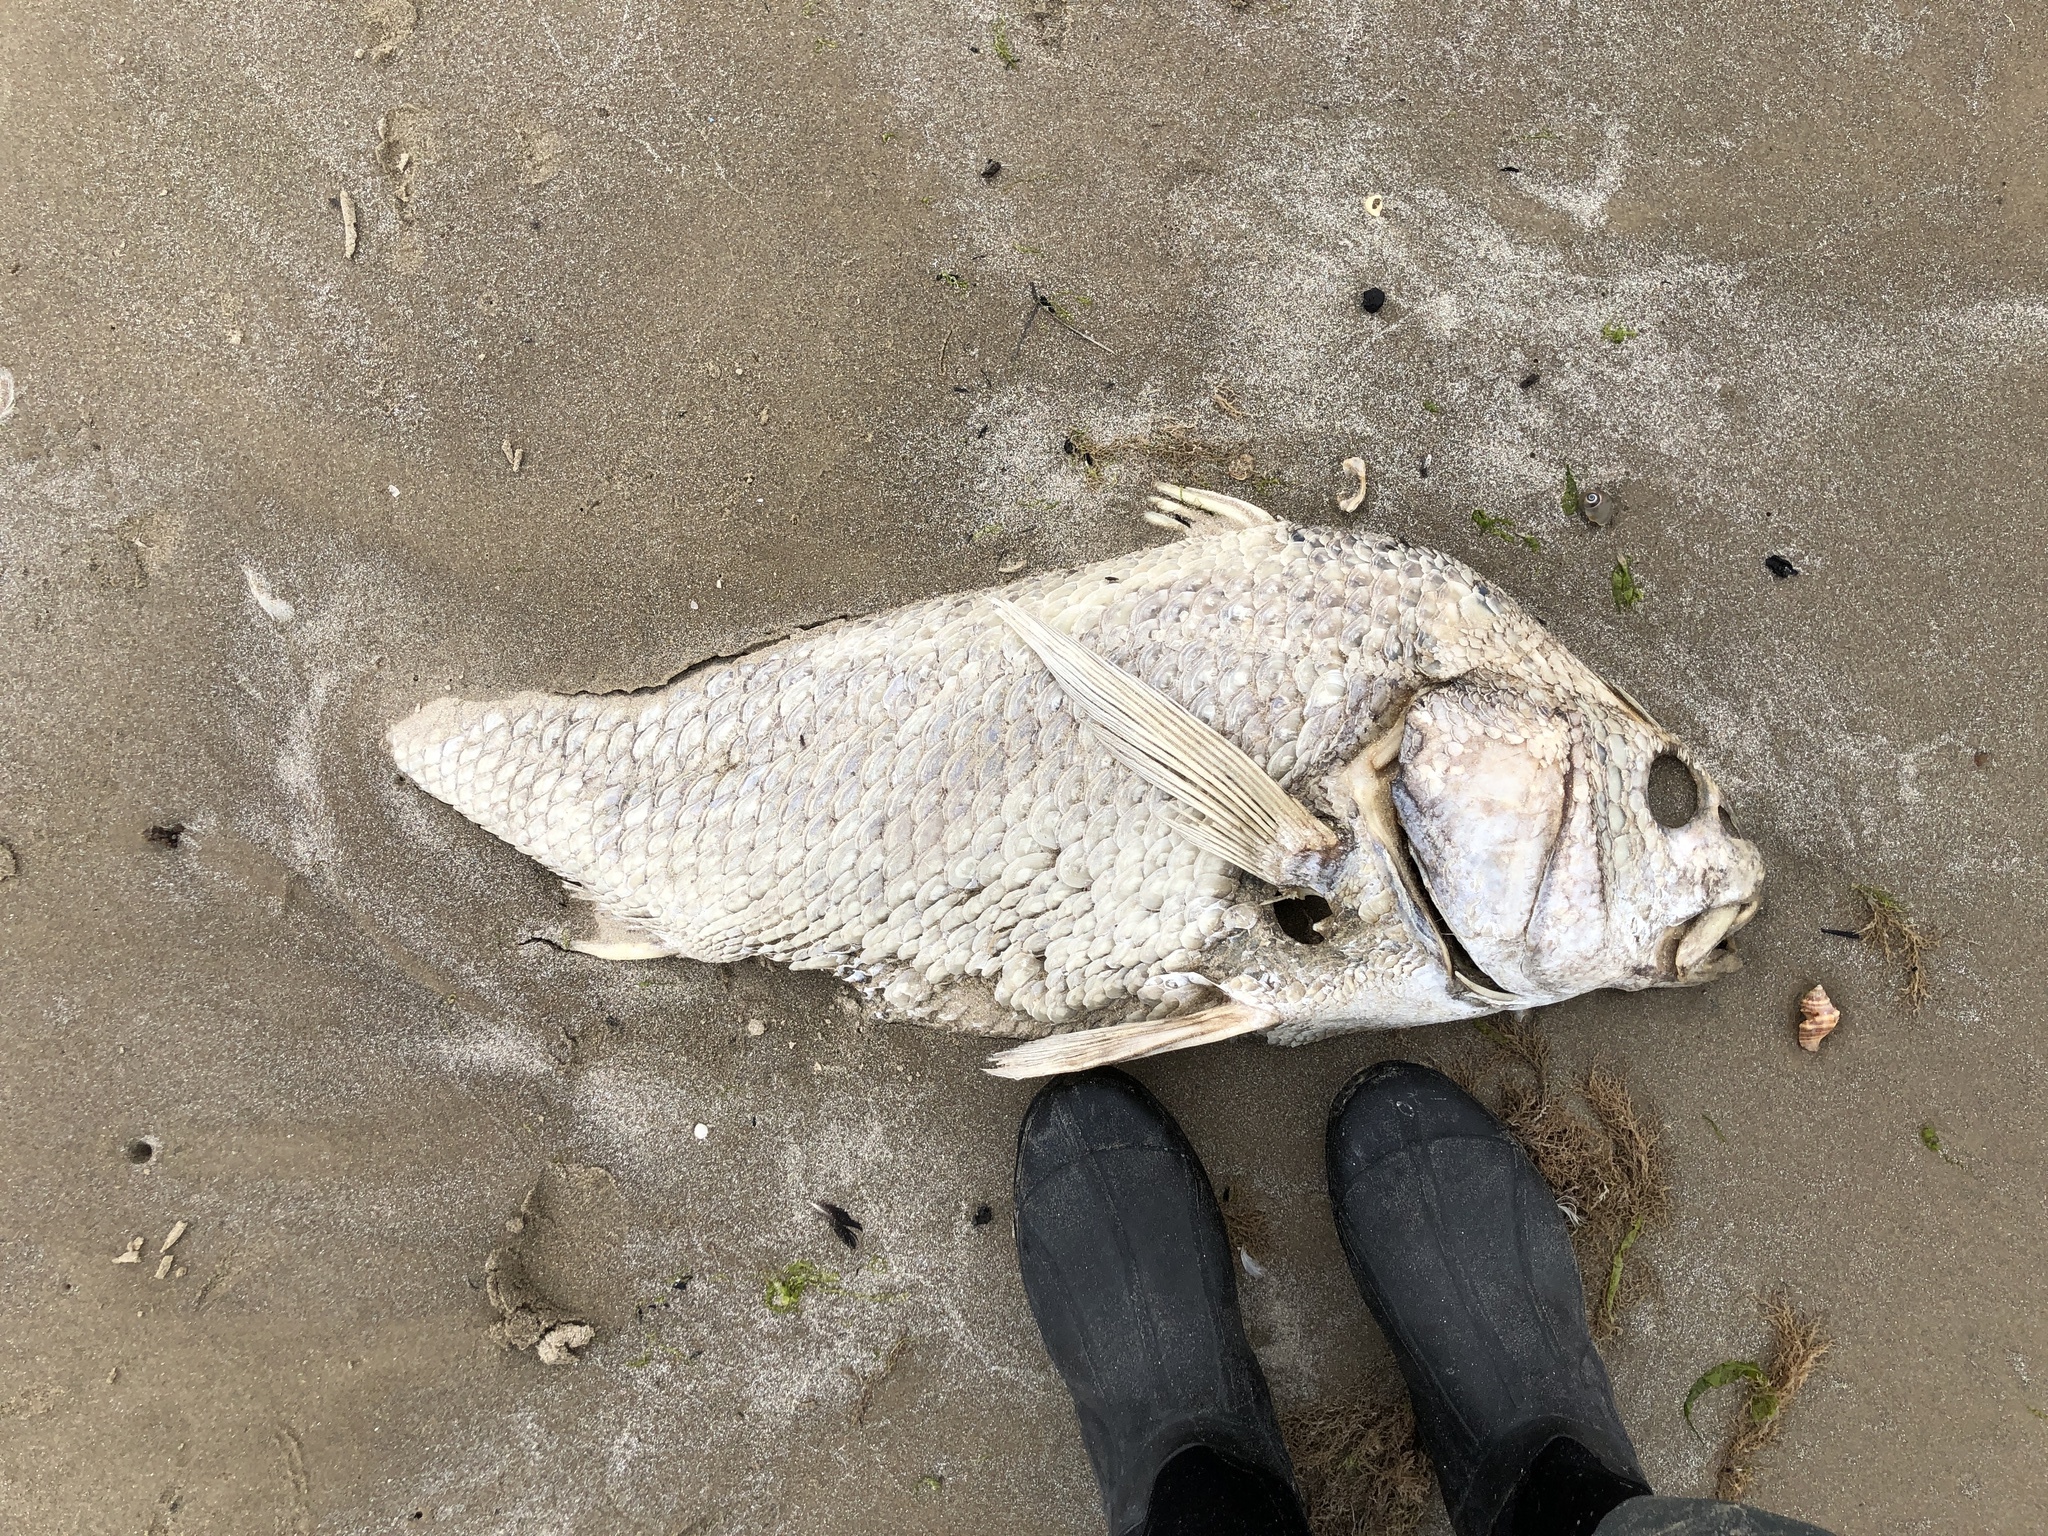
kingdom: Animalia
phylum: Chordata
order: Perciformes
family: Sciaenidae
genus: Pogonias
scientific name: Pogonias cromis
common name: Black drum
